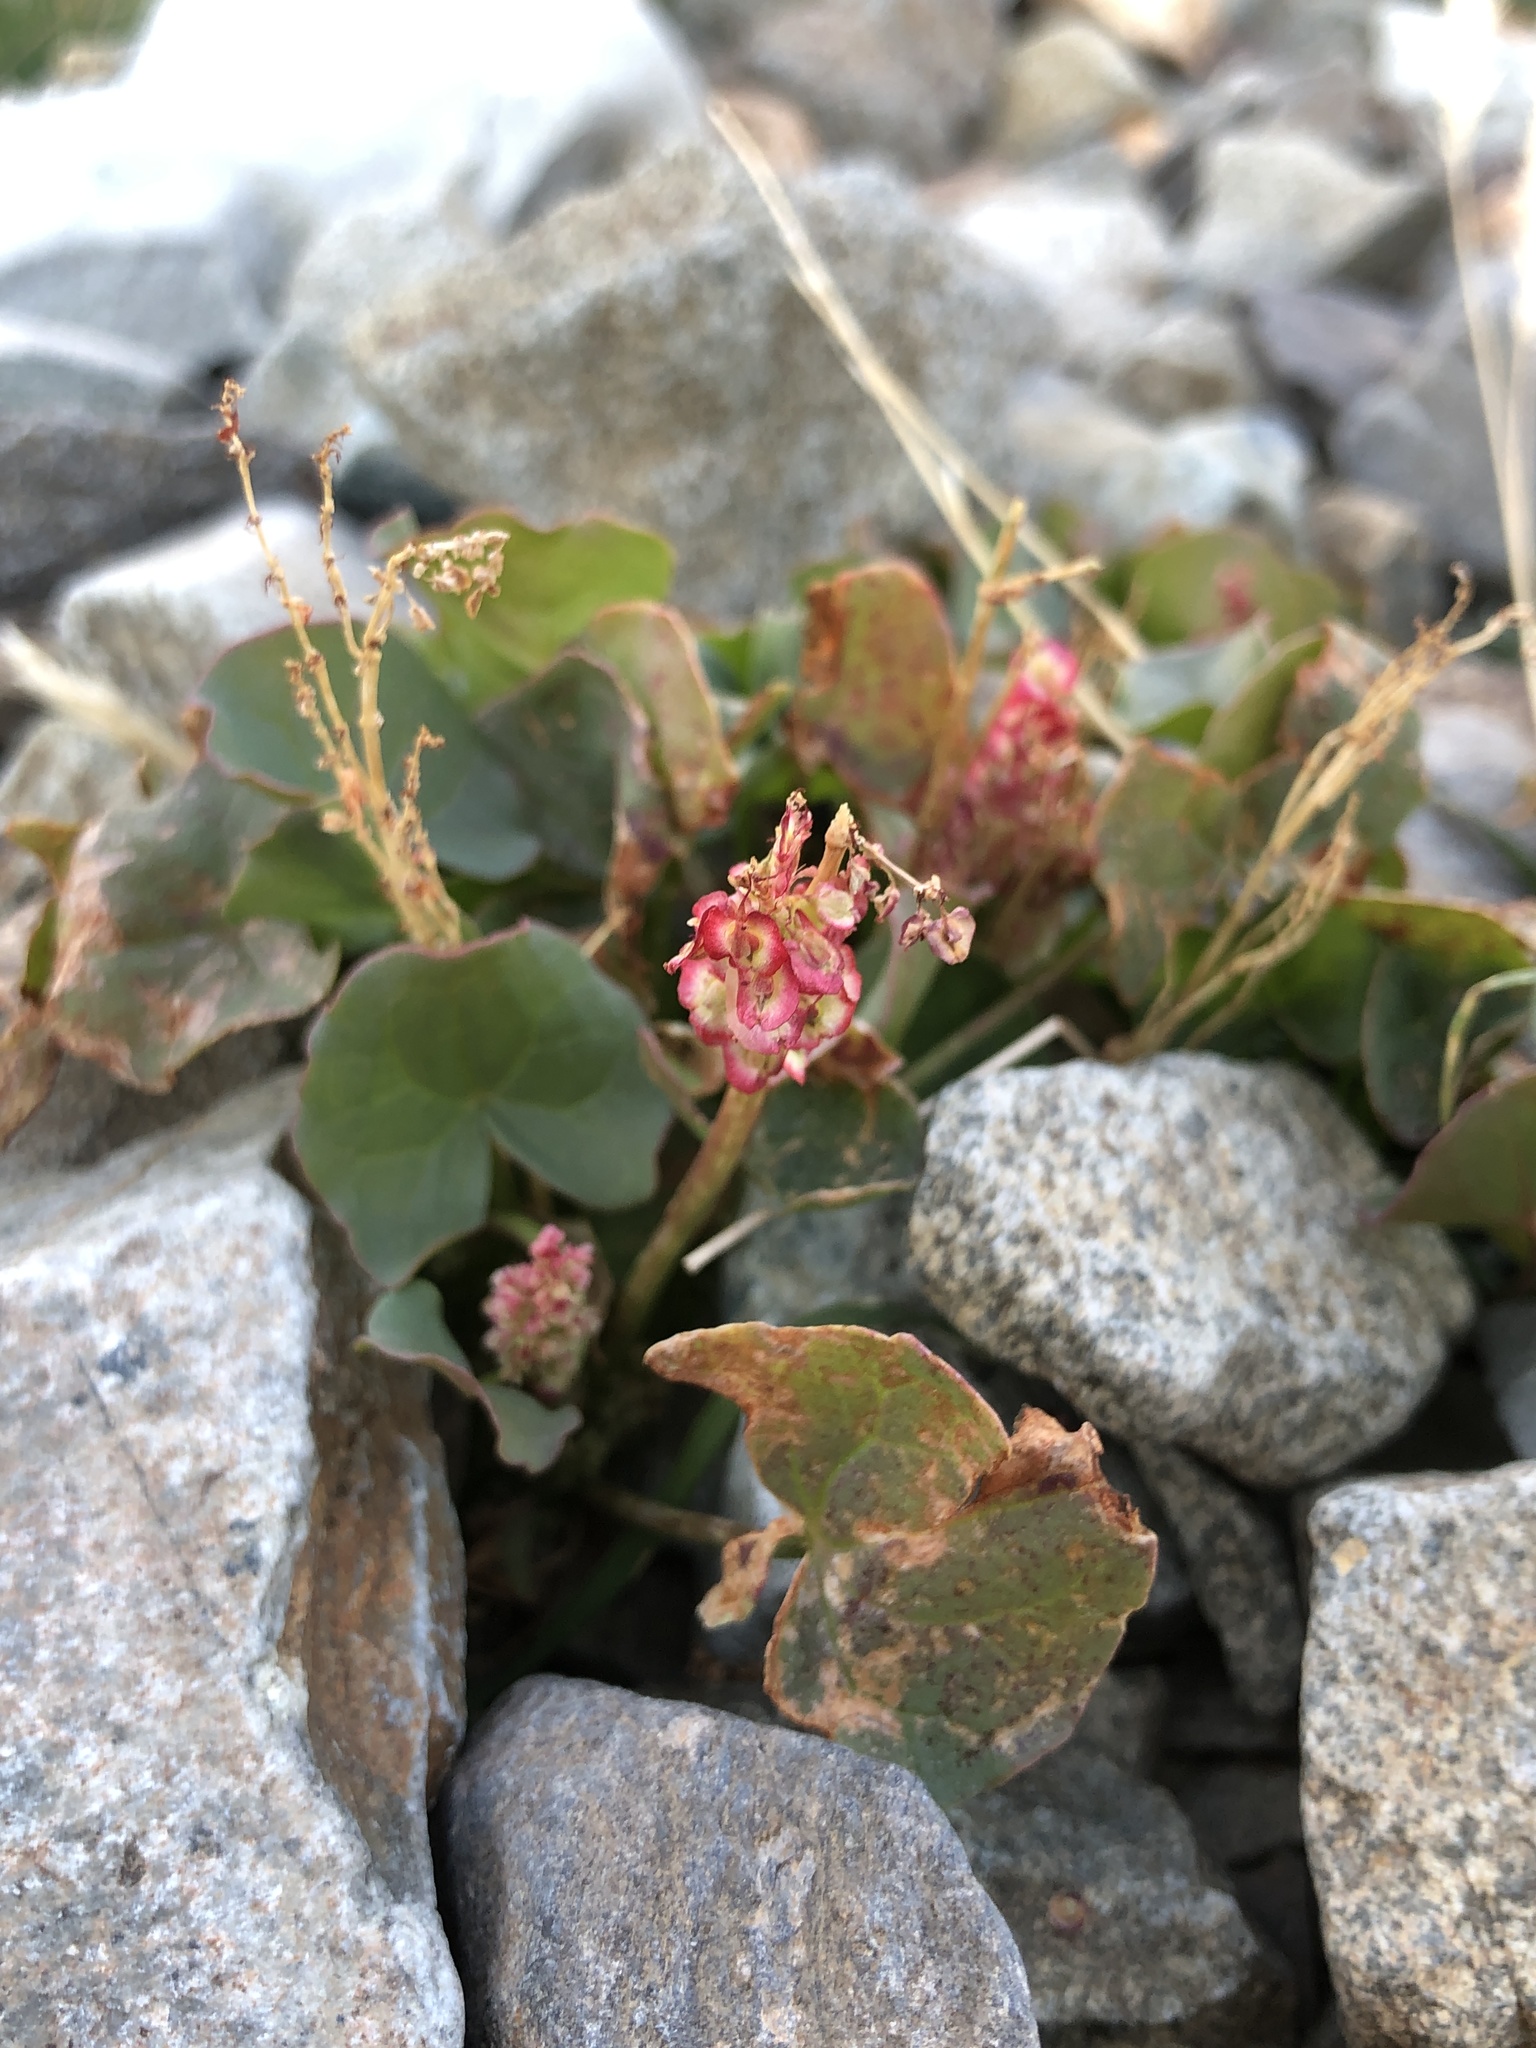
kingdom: Plantae
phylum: Tracheophyta
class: Magnoliopsida
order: Caryophyllales
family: Polygonaceae
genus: Oxyria
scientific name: Oxyria digyna
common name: Alpine mountain-sorrel
